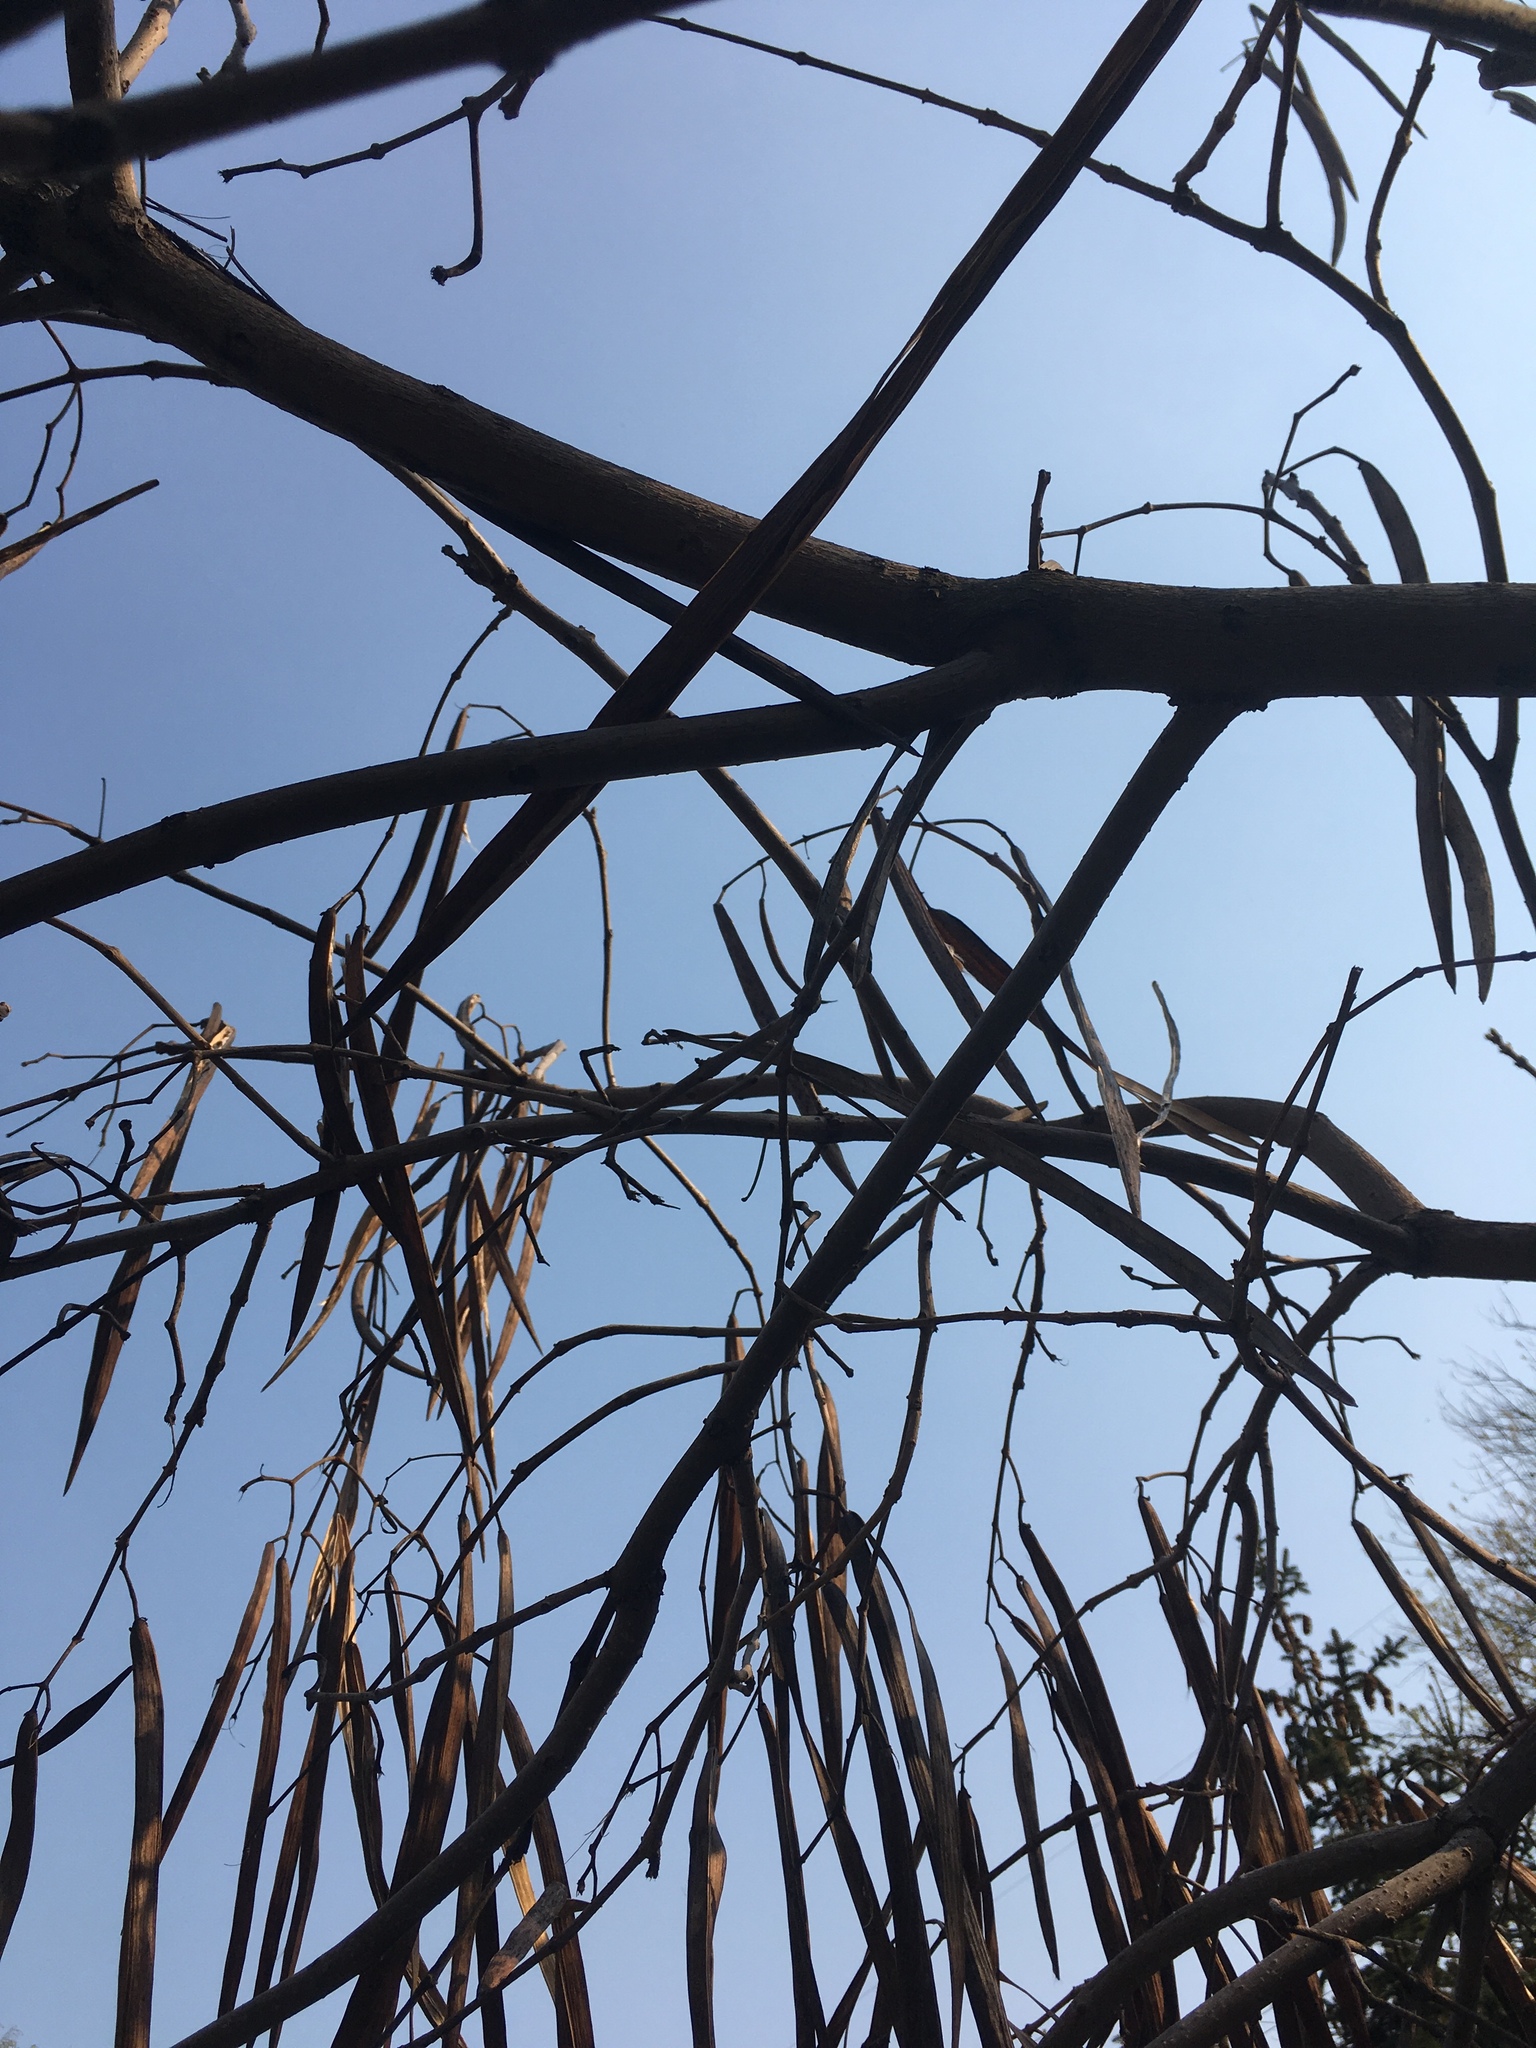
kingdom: Plantae
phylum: Tracheophyta
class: Magnoliopsida
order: Lamiales
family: Bignoniaceae
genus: Catalpa
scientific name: Catalpa bignonioides
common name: Southern catalpa
